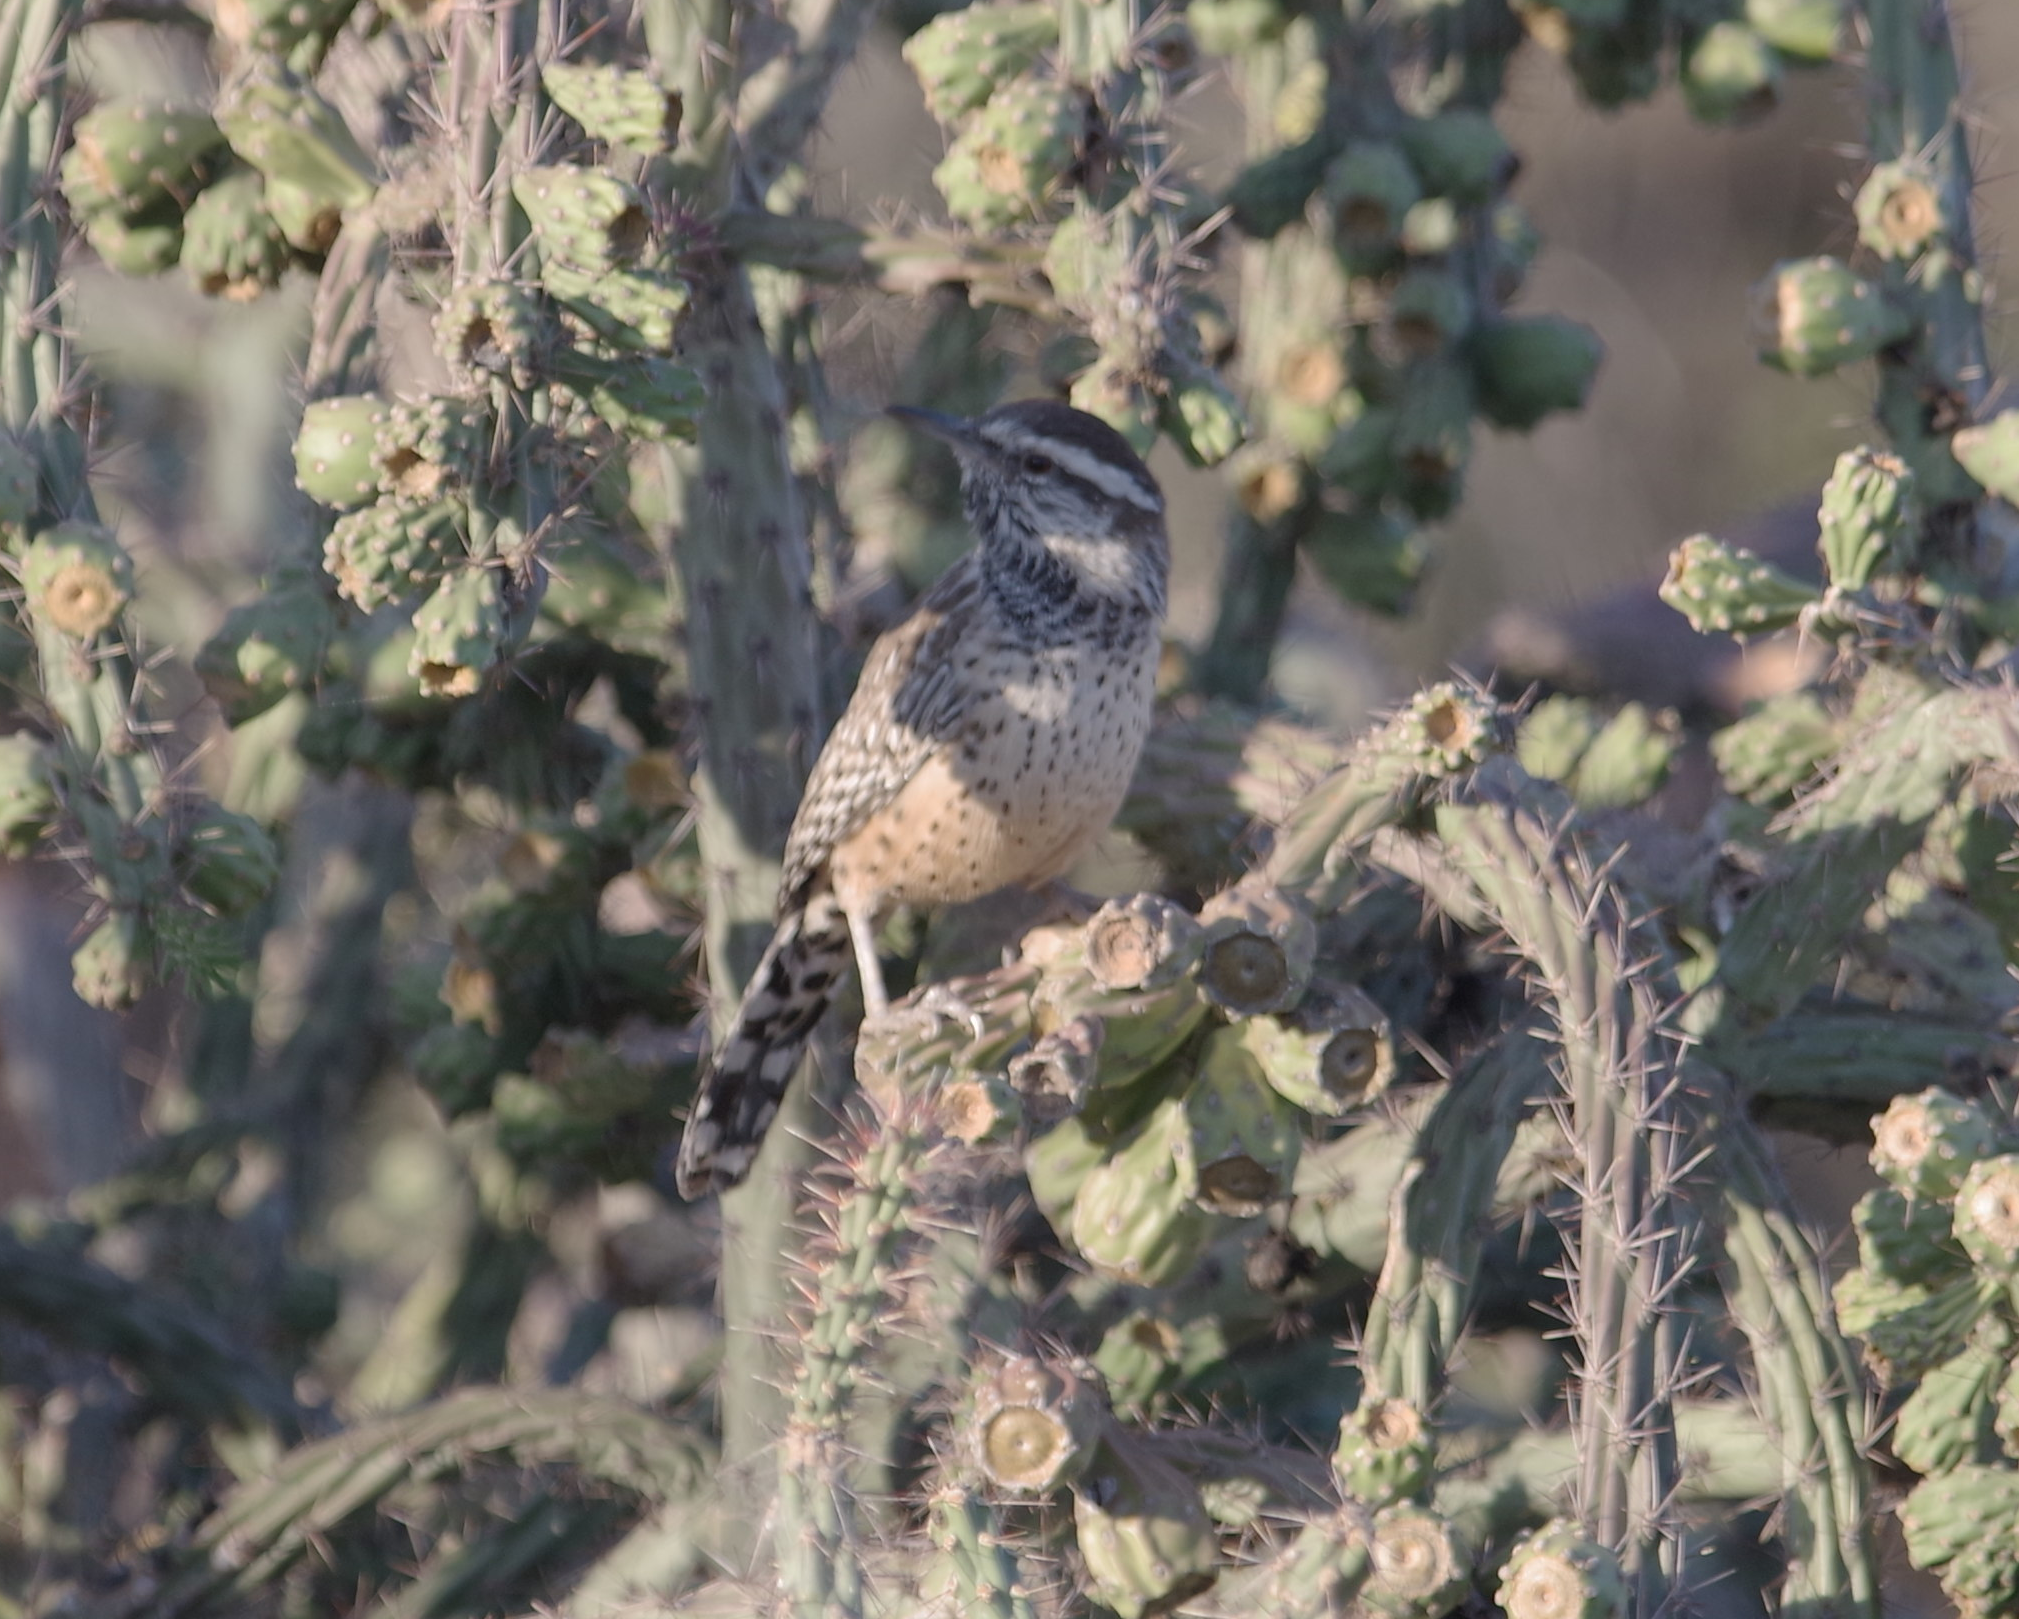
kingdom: Animalia
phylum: Chordata
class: Aves
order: Passeriformes
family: Troglodytidae
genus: Campylorhynchus
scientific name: Campylorhynchus brunneicapillus
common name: Cactus wren
